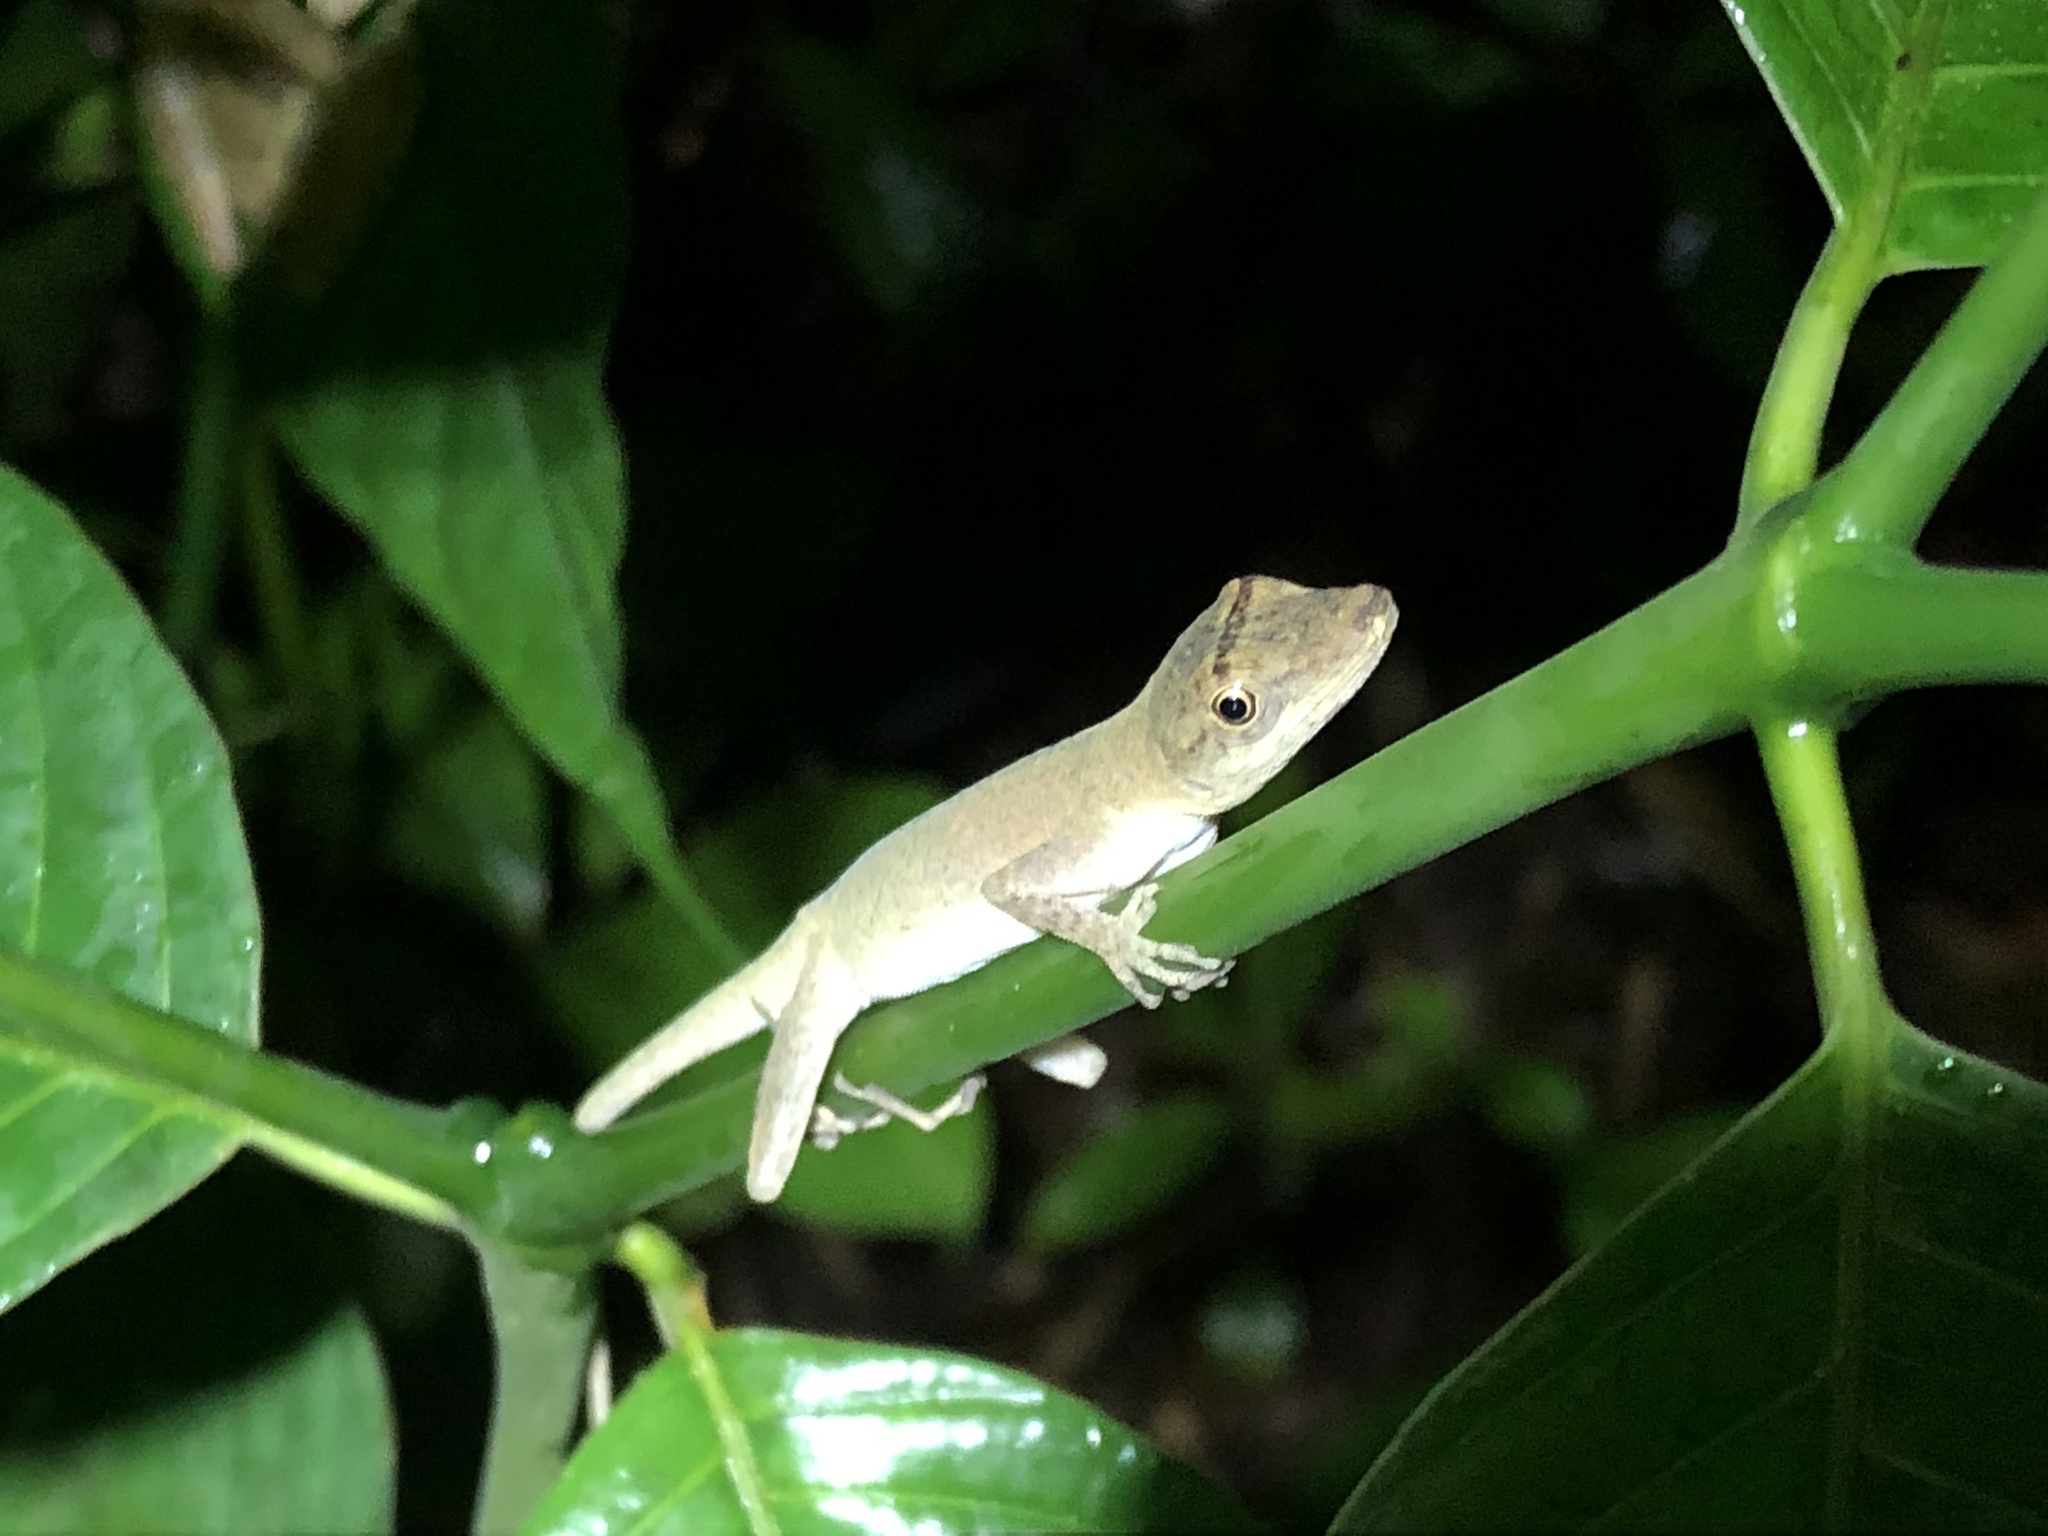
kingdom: Animalia
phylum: Chordata
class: Squamata
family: Dactyloidae
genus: Anolis
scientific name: Anolis fuscoauratus
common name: Brown-eared anole
